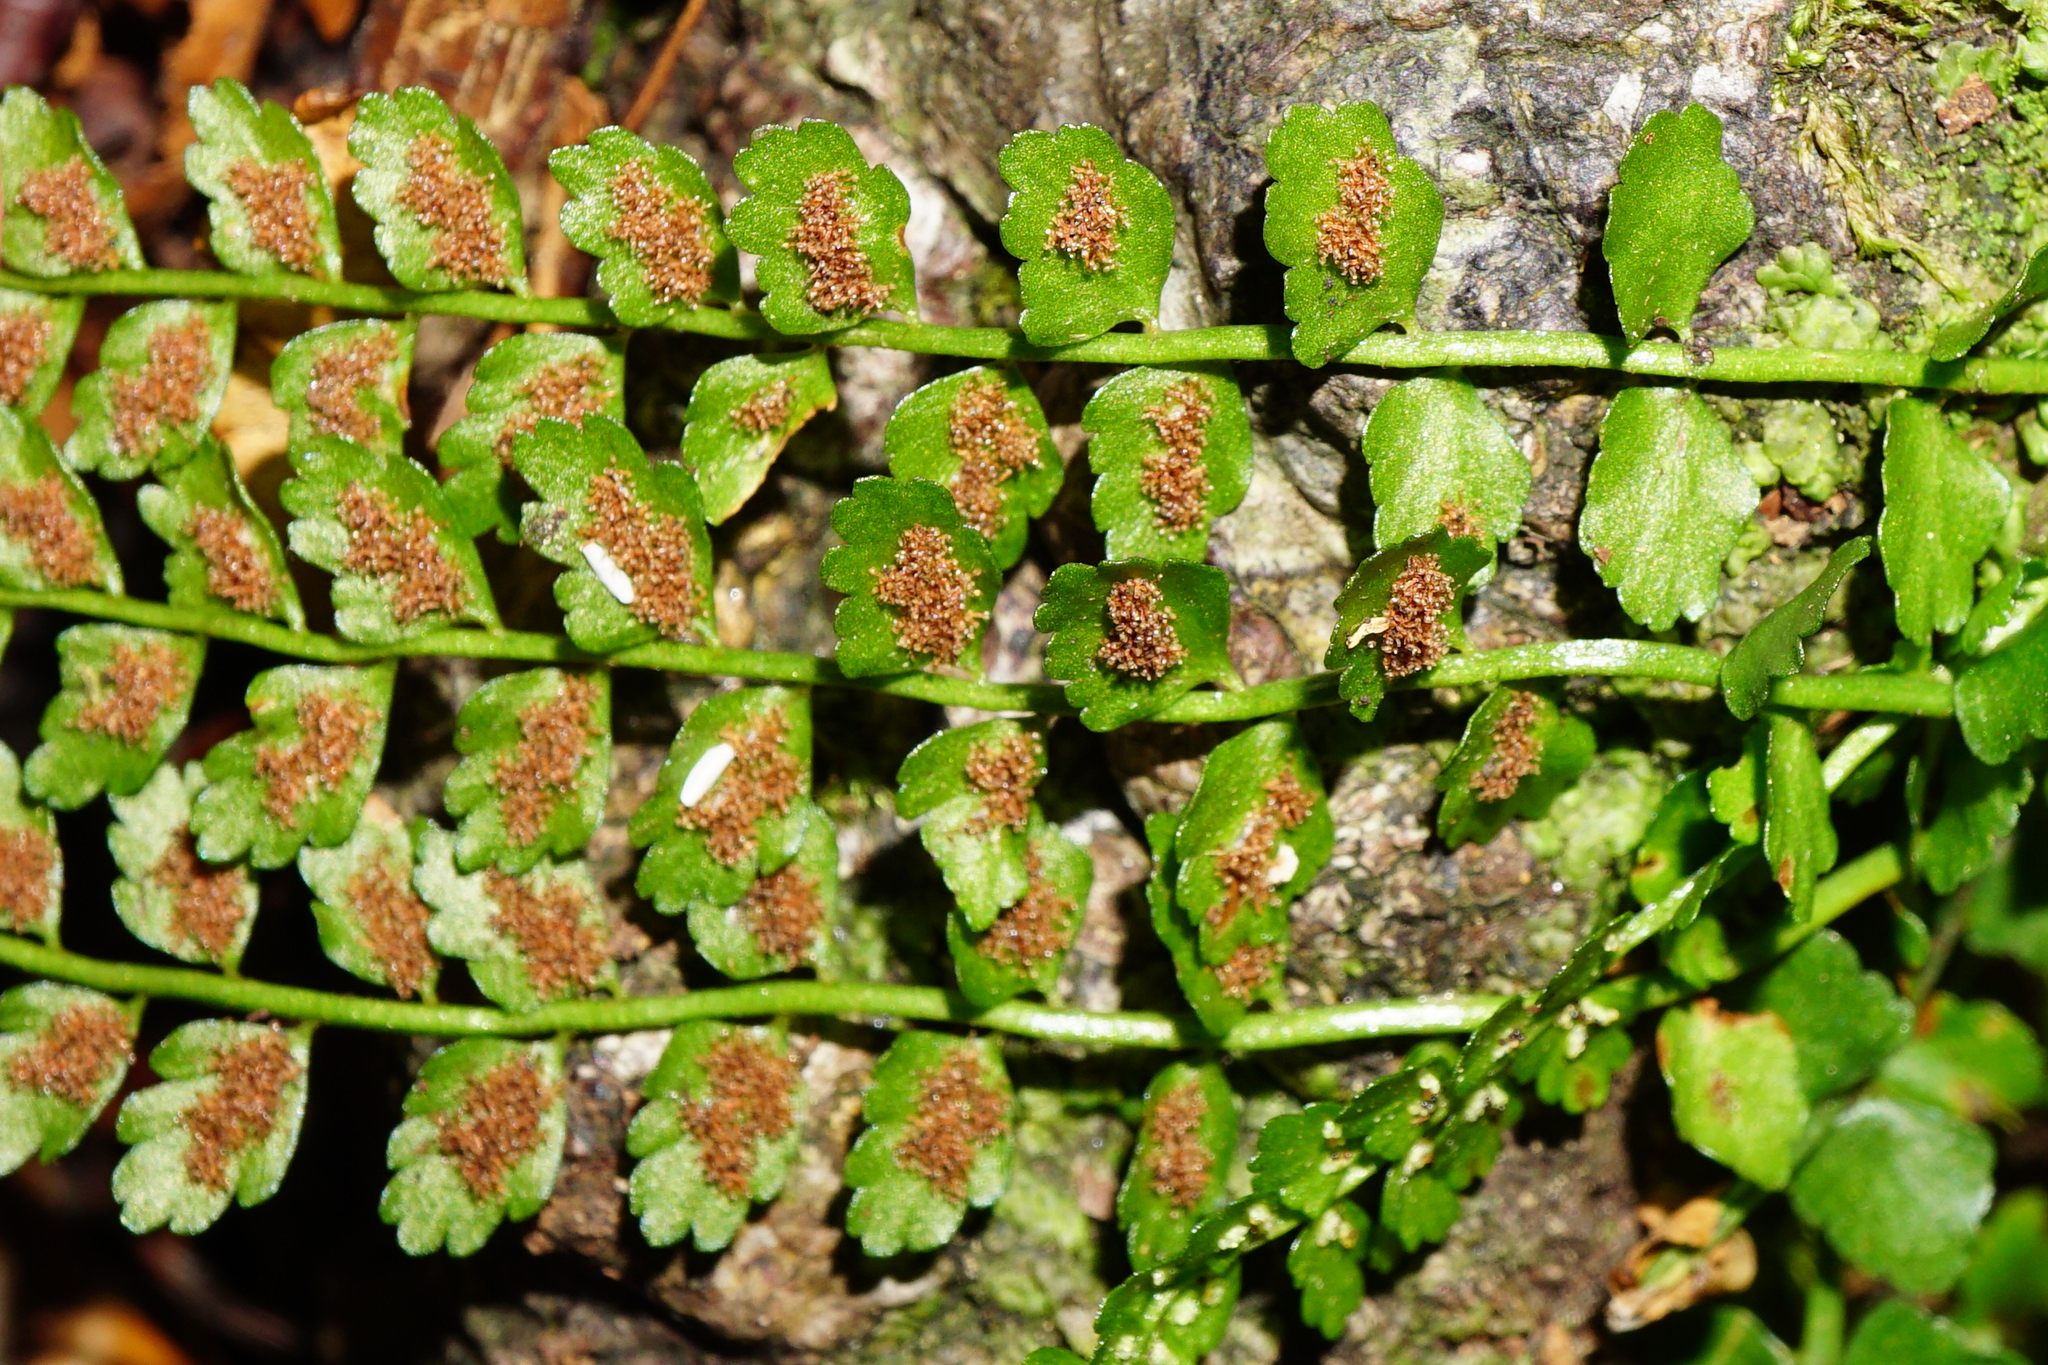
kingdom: Plantae
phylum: Tracheophyta
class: Polypodiopsida
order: Polypodiales
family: Aspleniaceae
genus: Asplenium
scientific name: Asplenium viride
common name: Green spleenwort
